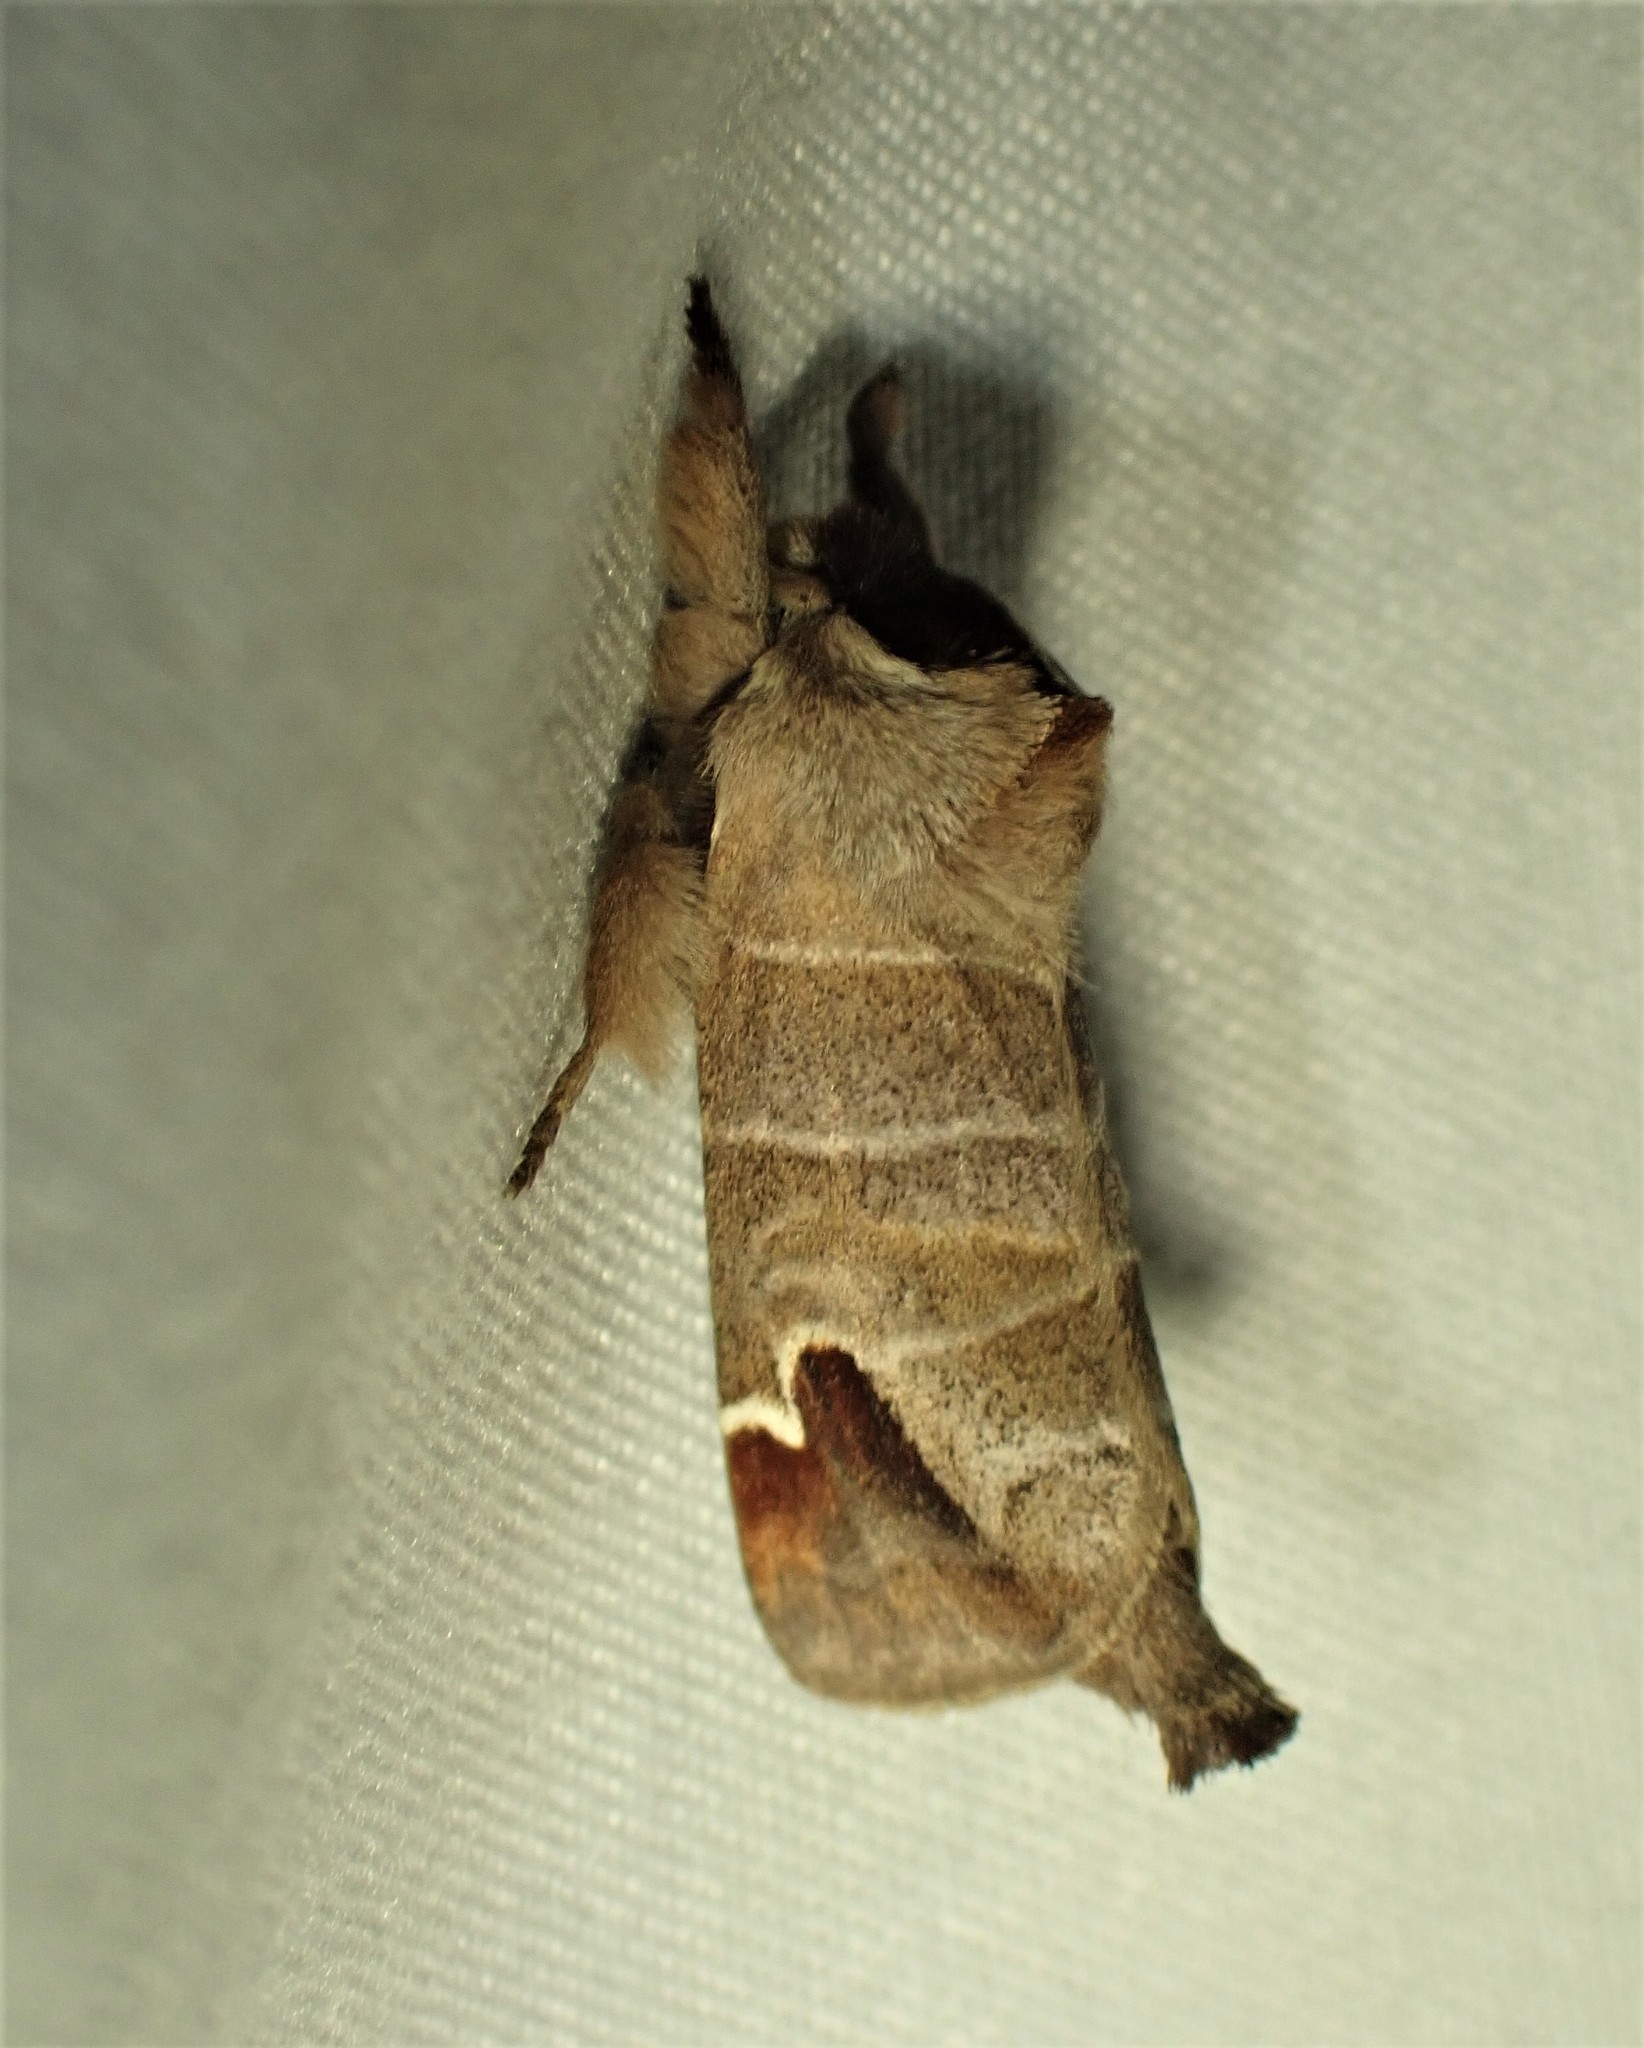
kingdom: Animalia
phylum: Arthropoda
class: Insecta
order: Lepidoptera
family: Notodontidae
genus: Clostera
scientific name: Clostera albosigma
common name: Sigmoid prominent
